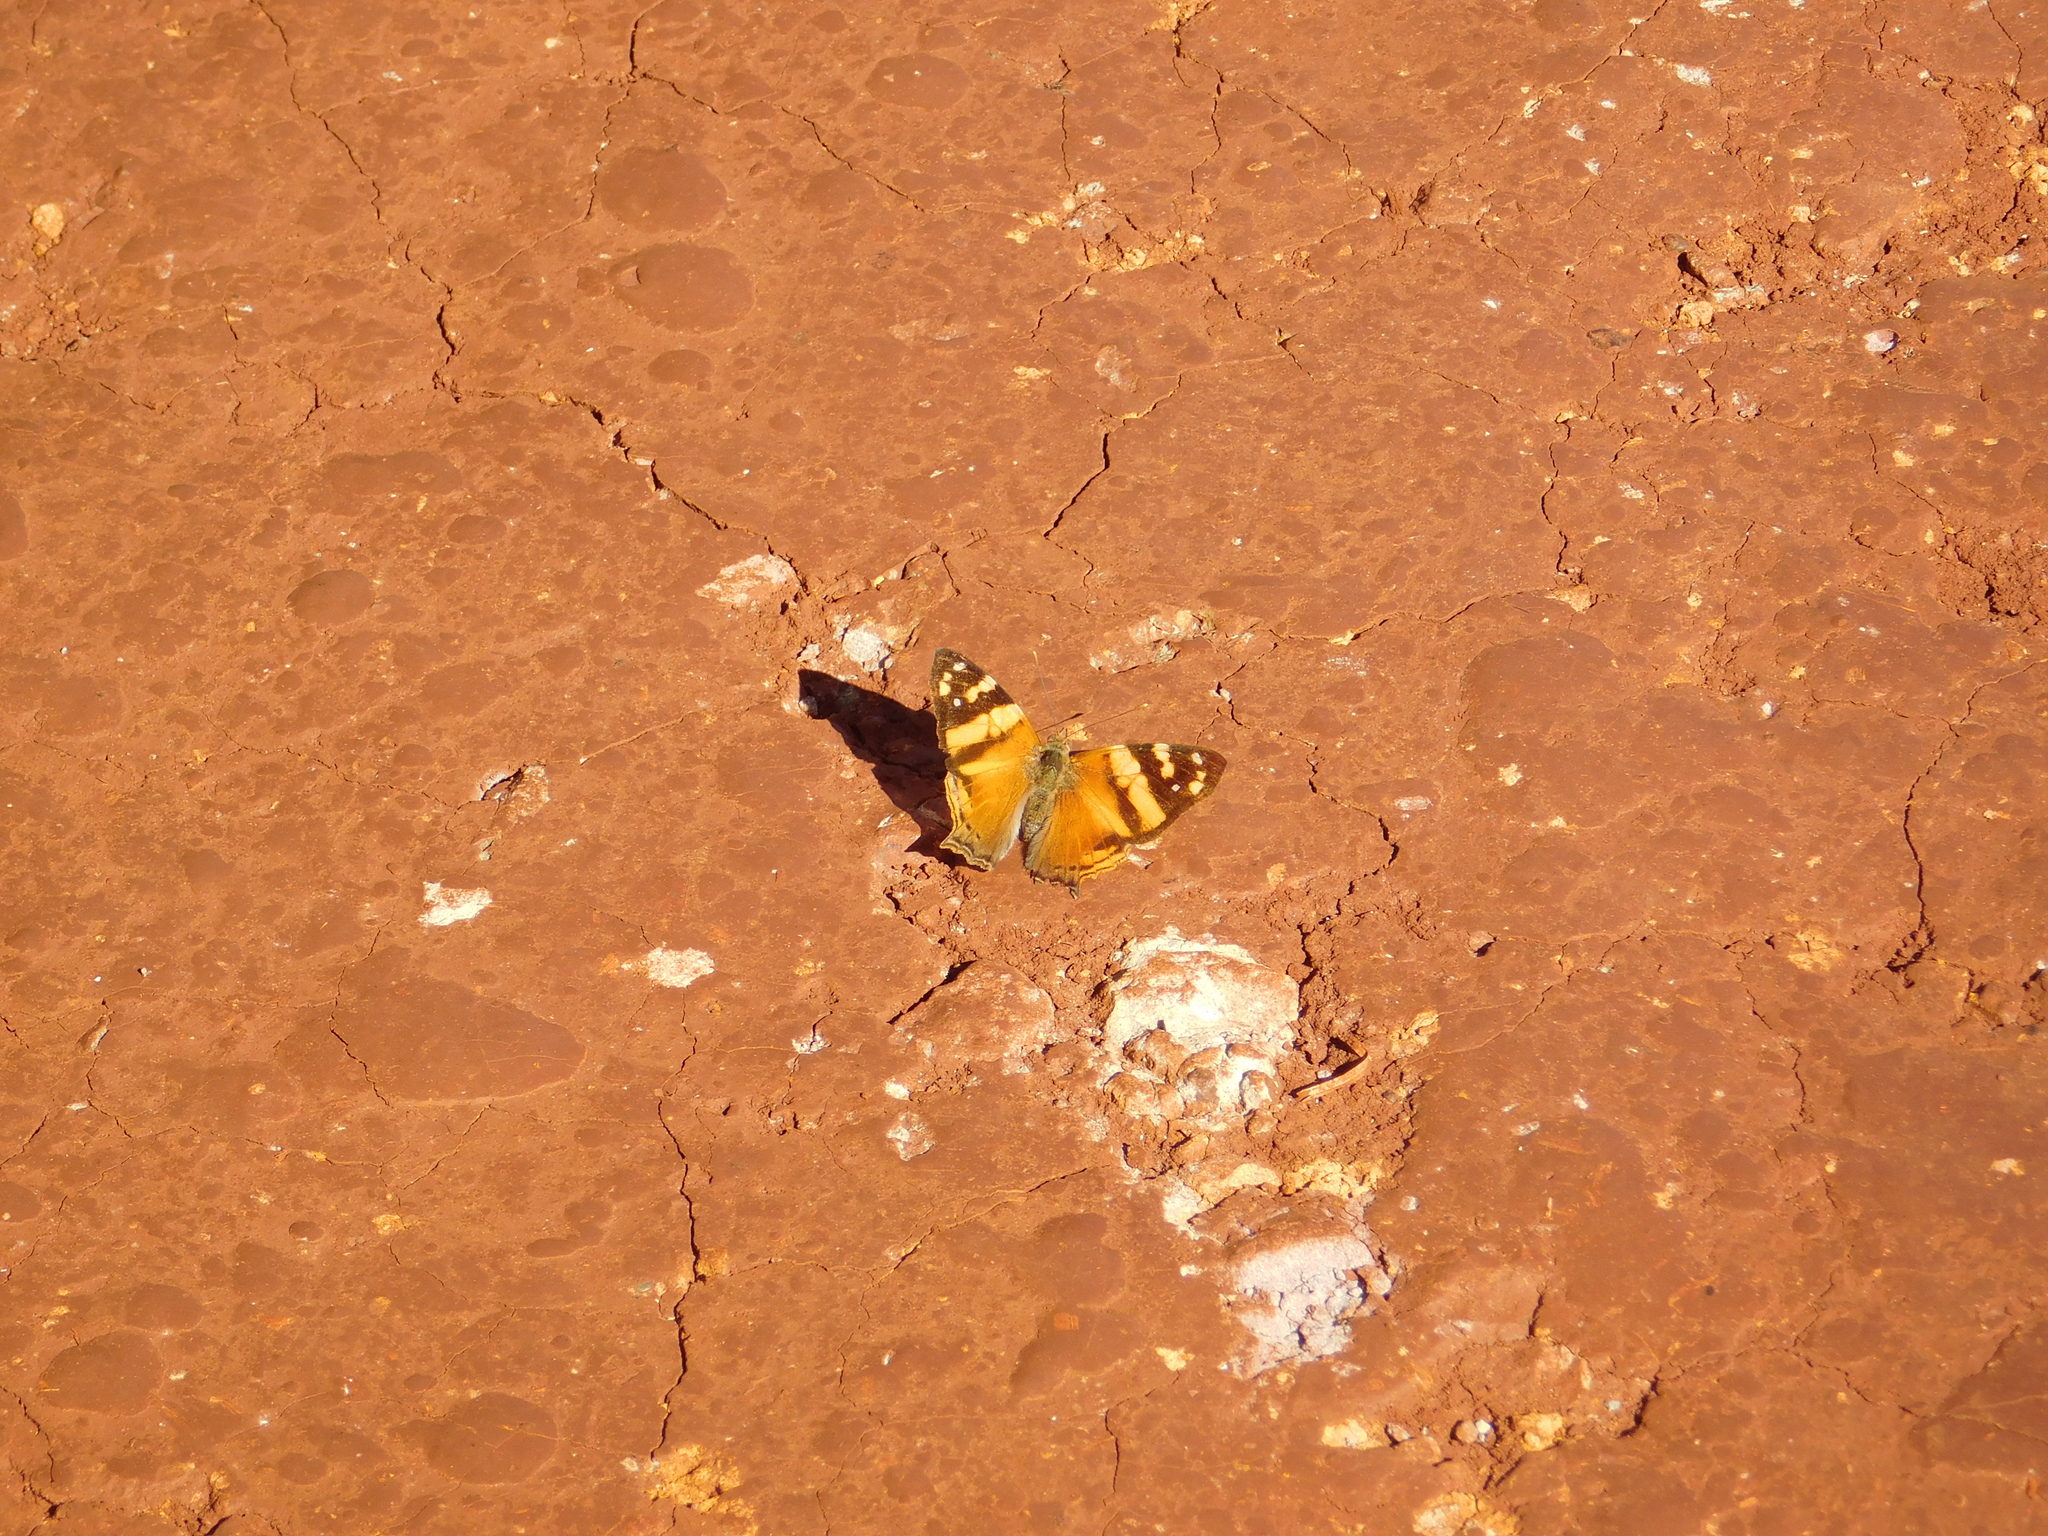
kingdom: Animalia
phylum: Arthropoda
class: Insecta
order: Lepidoptera
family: Nymphalidae
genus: Hypanartia
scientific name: Hypanartia lethe
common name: Orange mapwing
